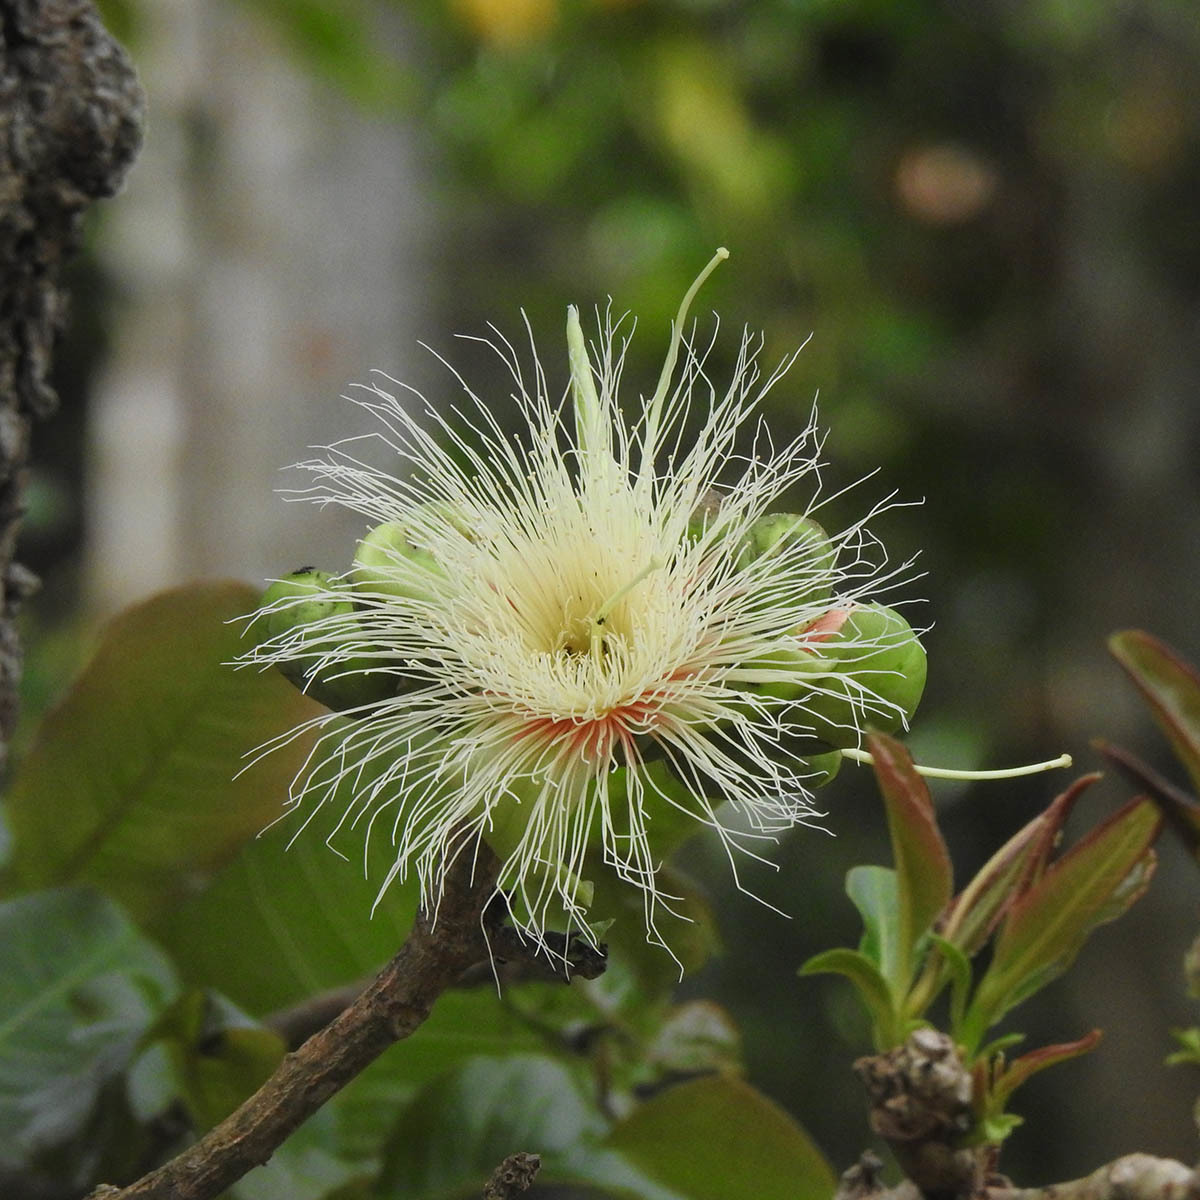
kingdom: Plantae
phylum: Tracheophyta
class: Magnoliopsida
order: Ericales
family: Lecythidaceae
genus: Careya
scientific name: Careya arborea
